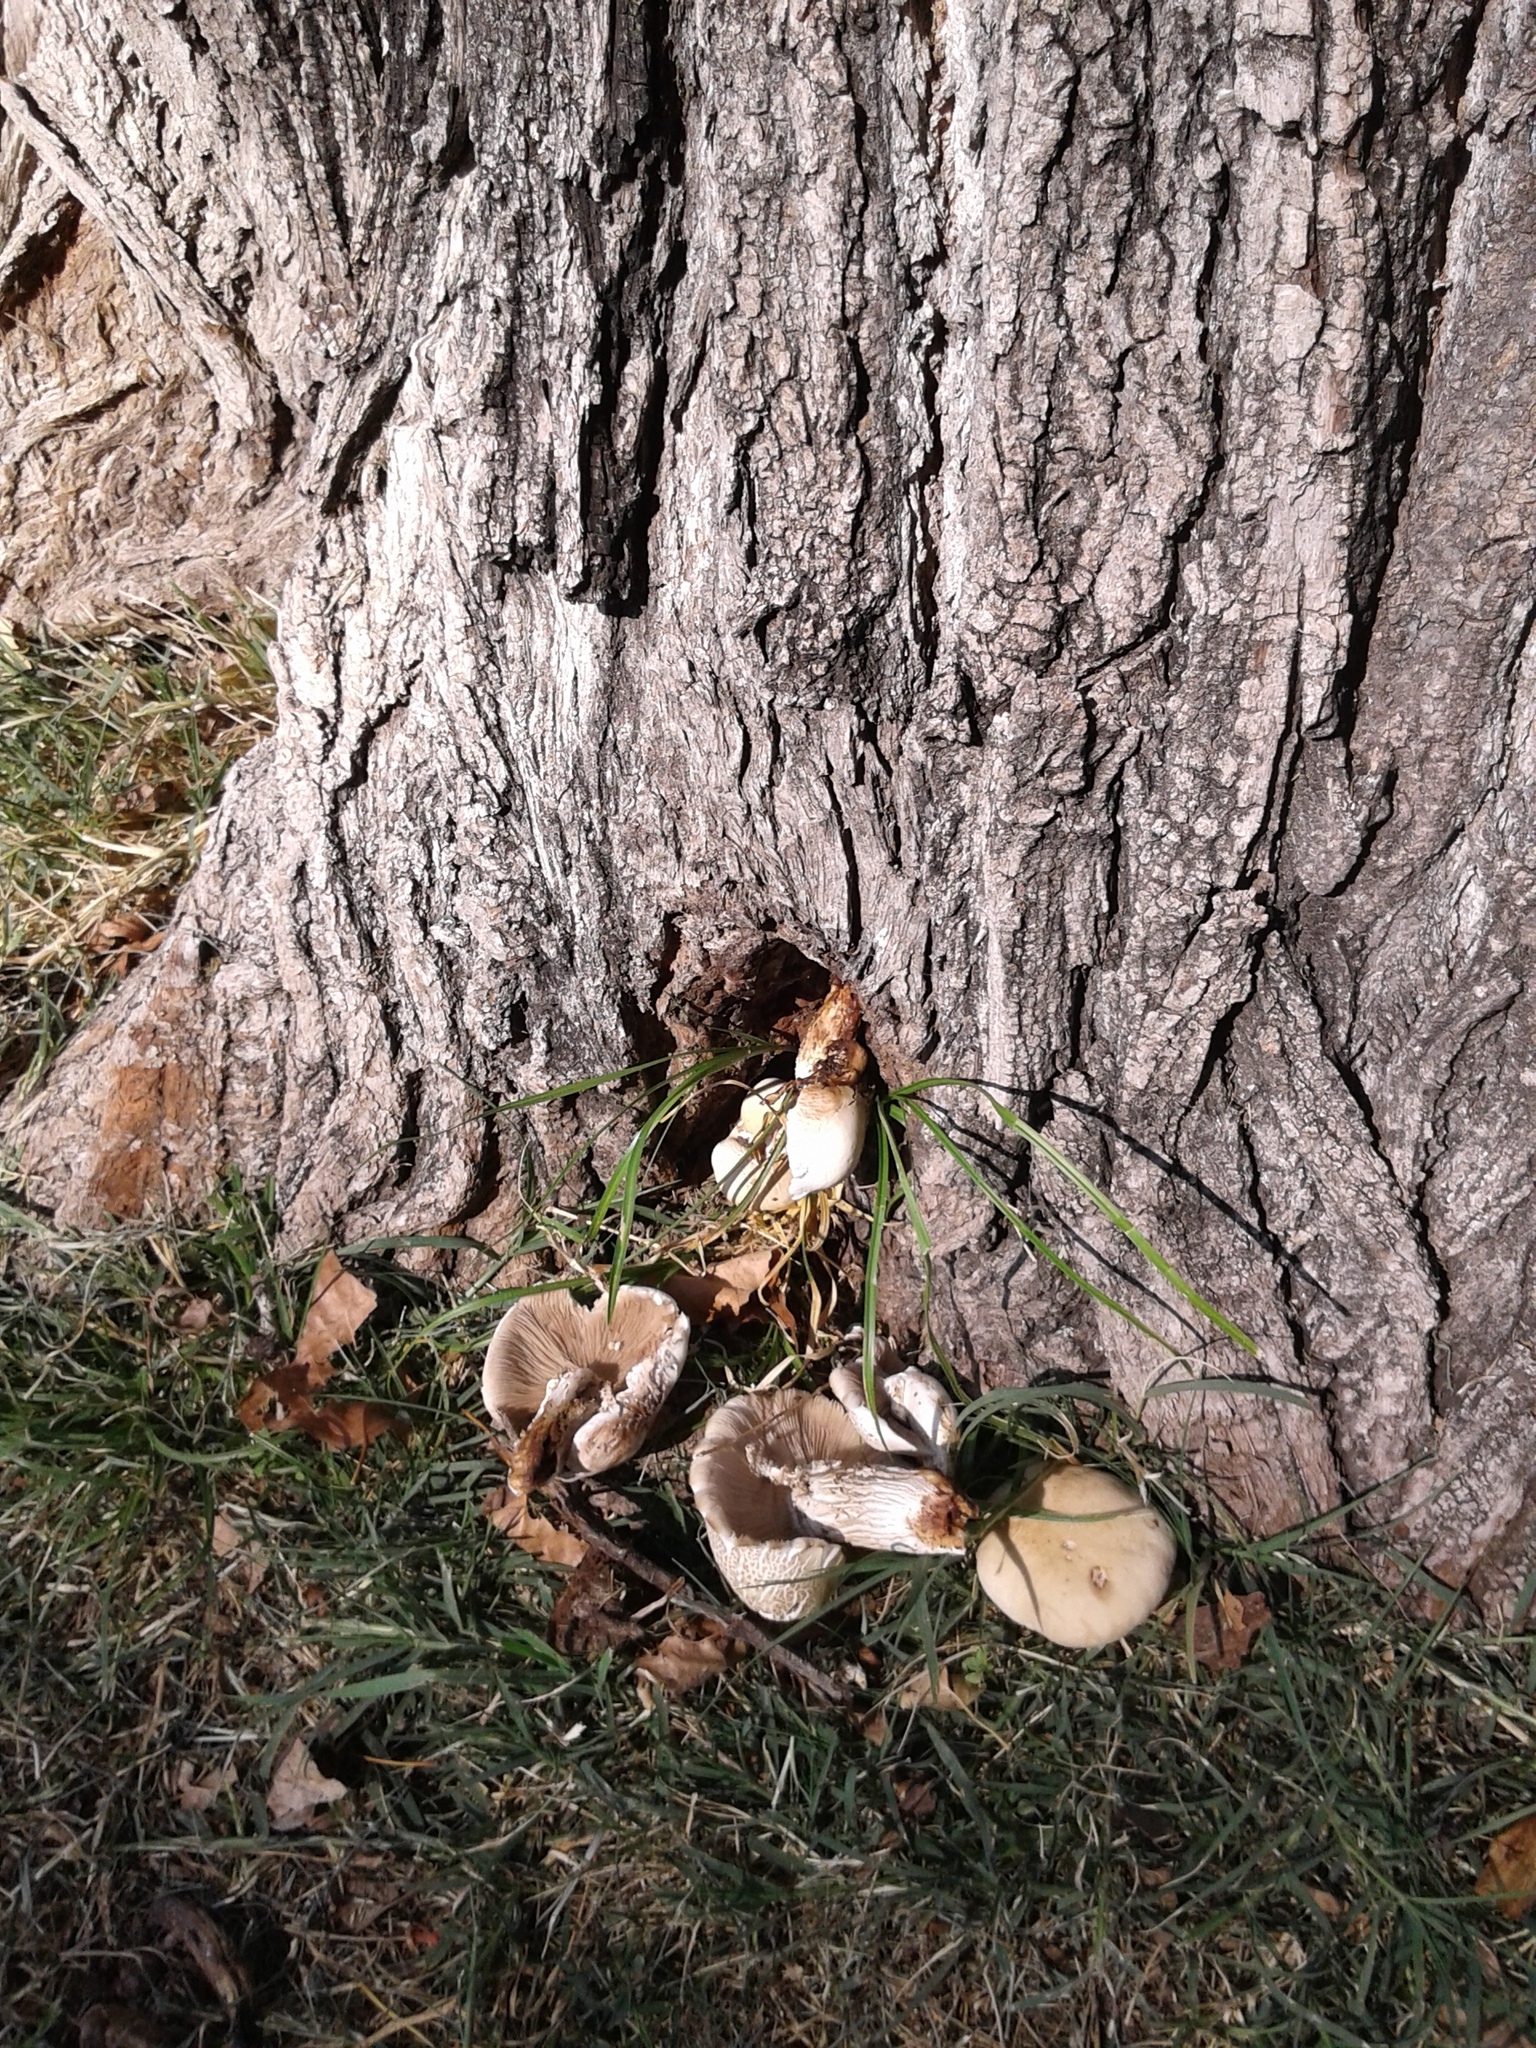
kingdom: Fungi
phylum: Basidiomycota
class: Agaricomycetes
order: Agaricales
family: Tubariaceae
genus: Cyclocybe
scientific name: Cyclocybe cylindracea
